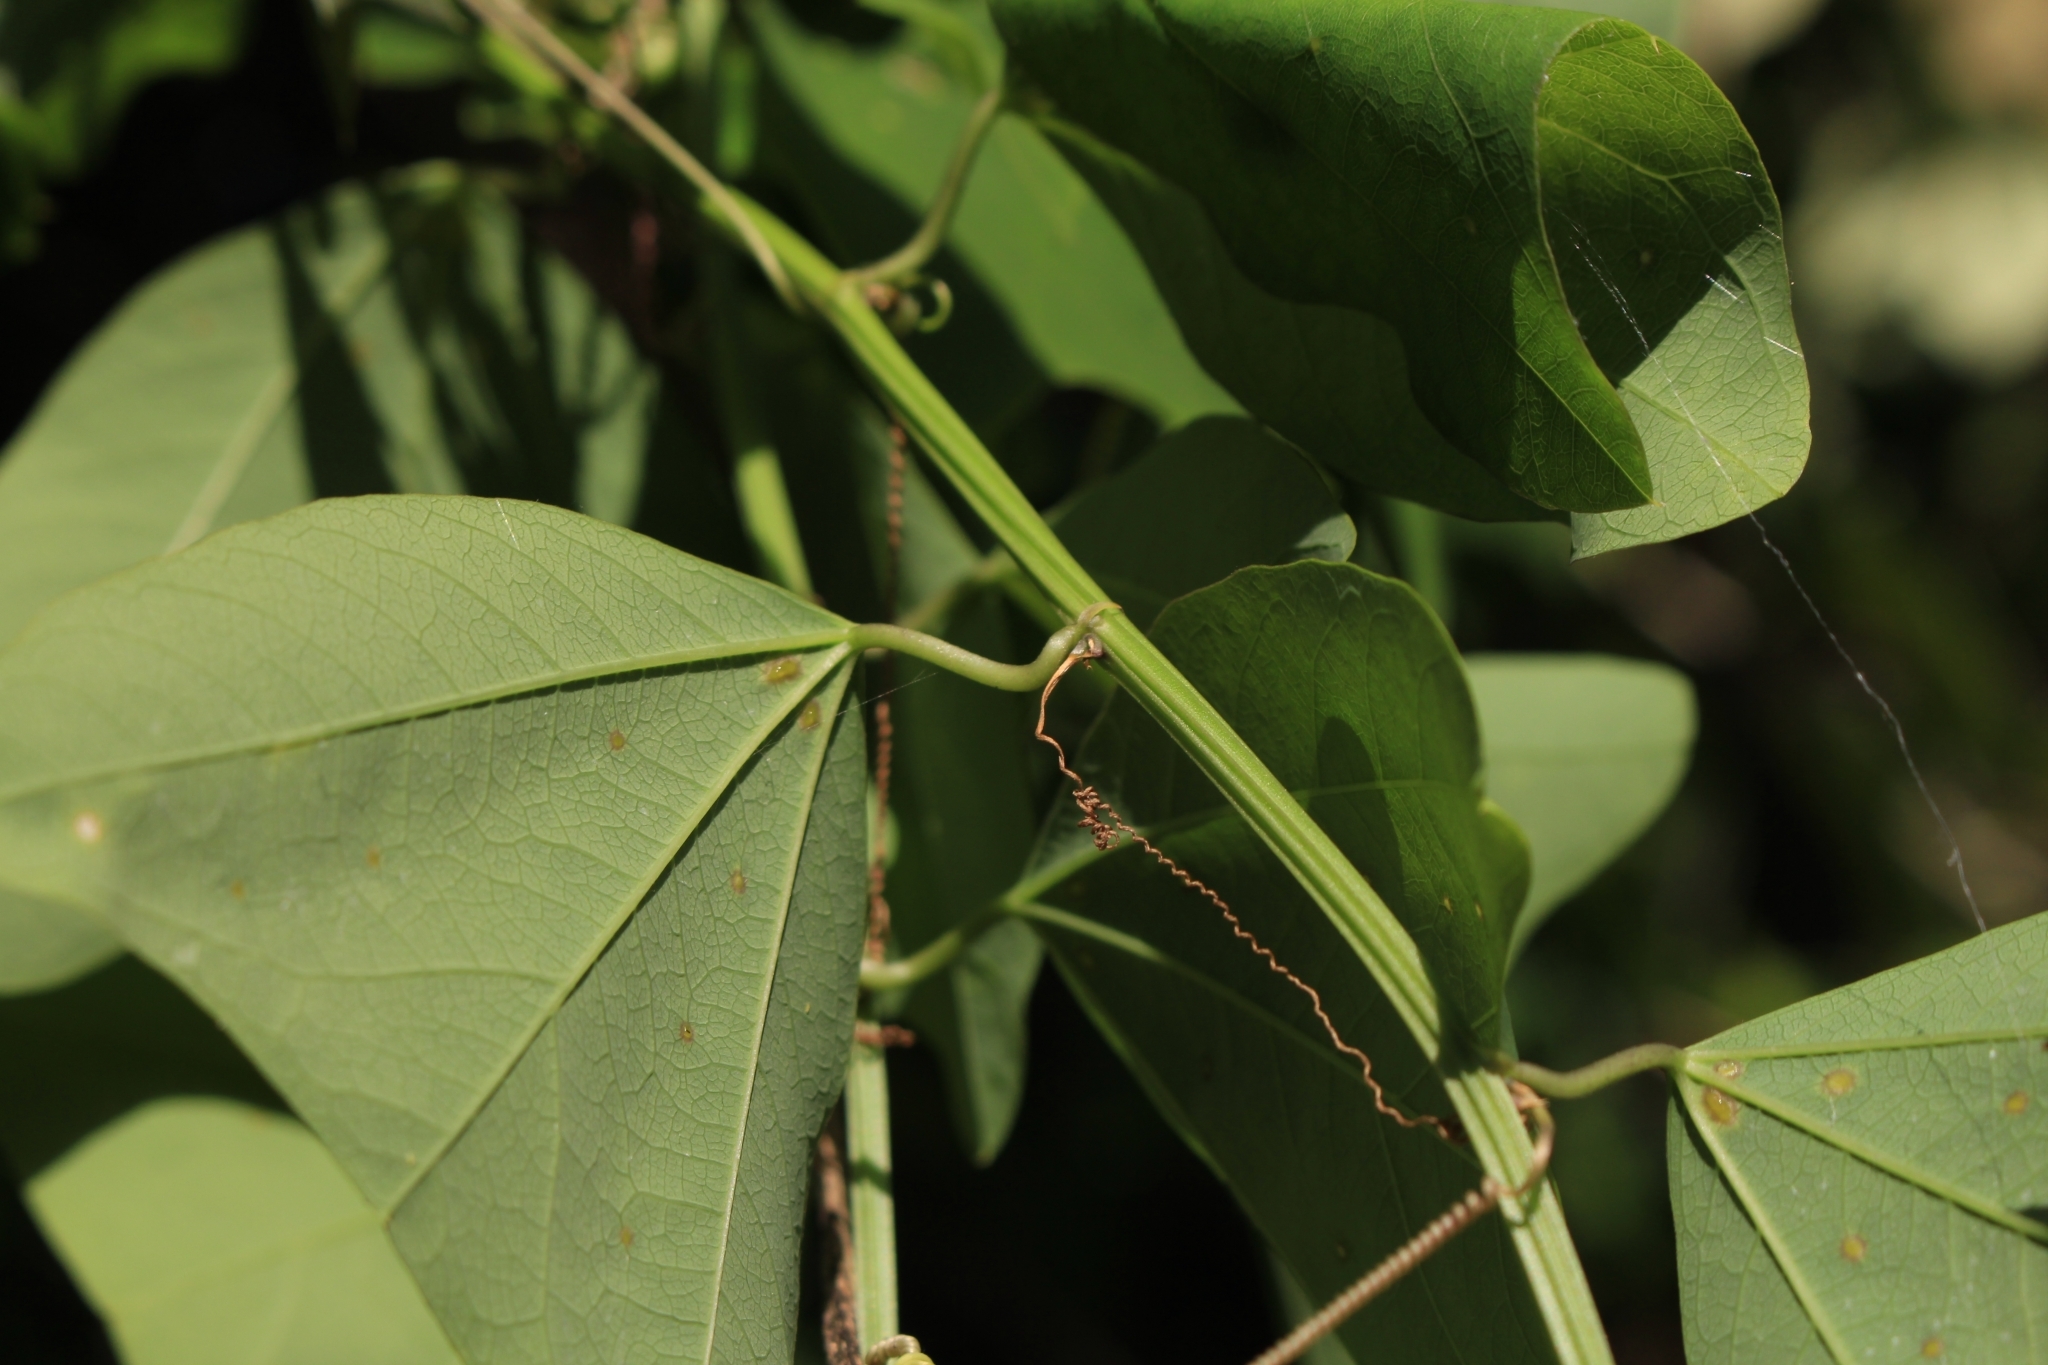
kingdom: Plantae
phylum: Tracheophyta
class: Magnoliopsida
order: Malpighiales
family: Passifloraceae
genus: Passiflora
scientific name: Passiflora biflora
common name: Twoflower passionflower
